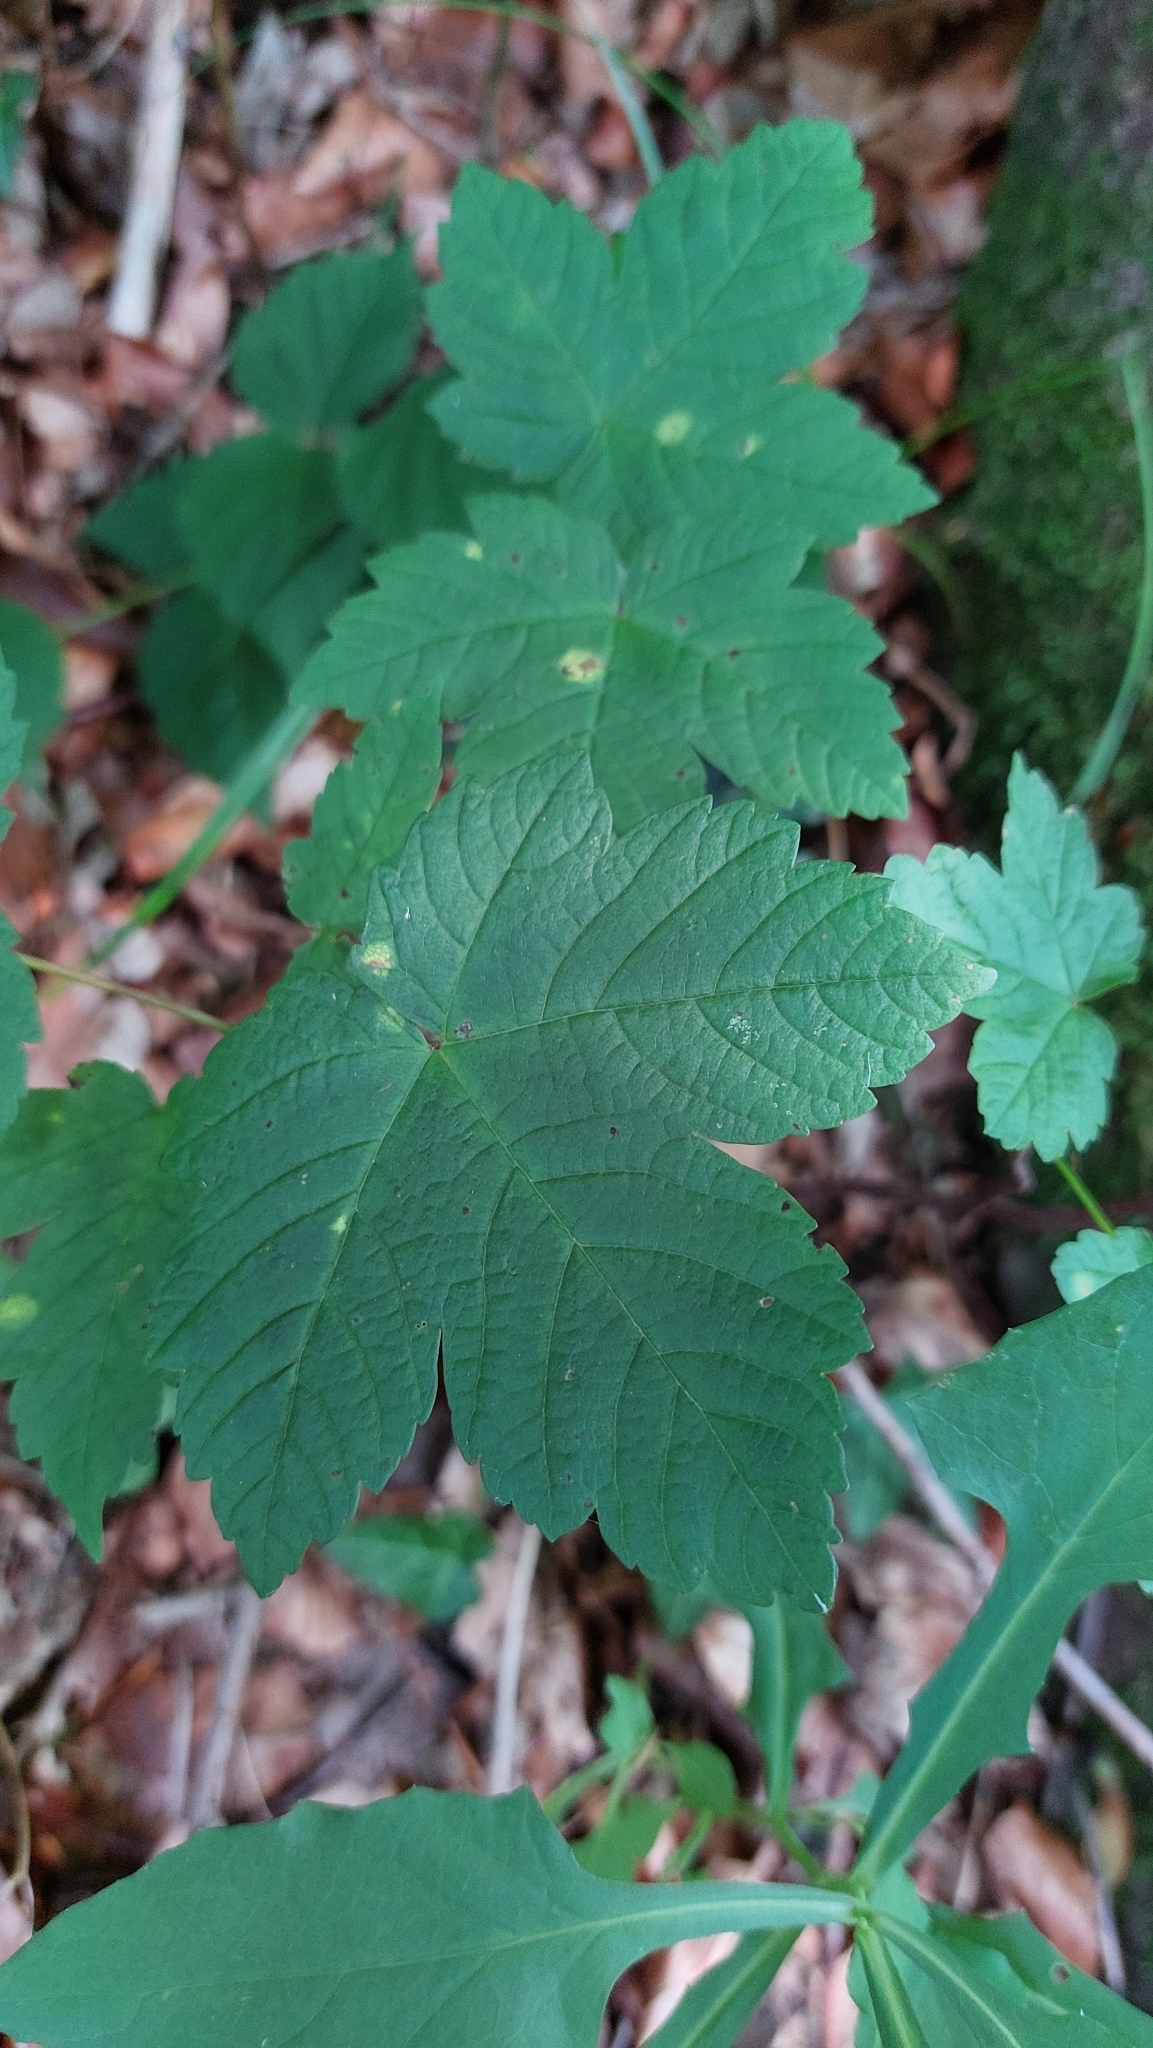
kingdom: Plantae
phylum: Tracheophyta
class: Magnoliopsida
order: Sapindales
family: Sapindaceae
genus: Acer
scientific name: Acer pseudoplatanus
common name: Sycamore
